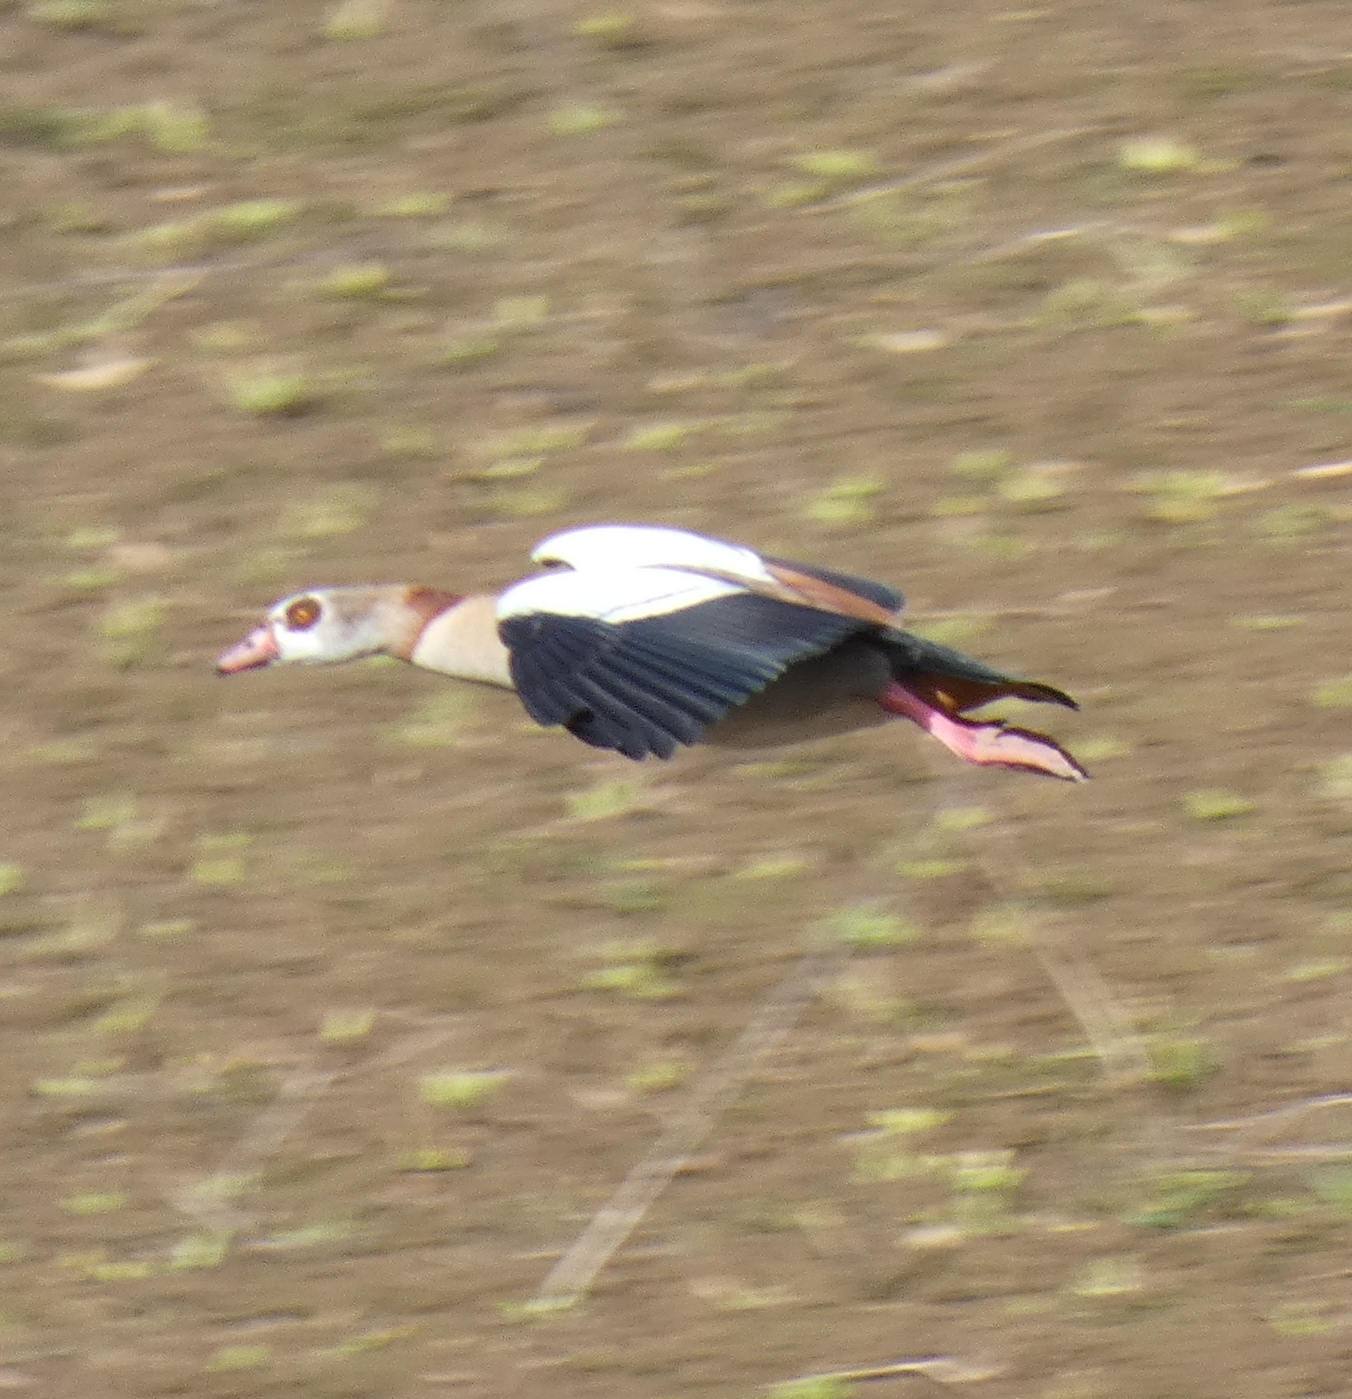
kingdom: Animalia
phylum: Chordata
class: Aves
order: Anseriformes
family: Anatidae
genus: Alopochen
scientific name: Alopochen aegyptiaca
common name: Egyptian goose
